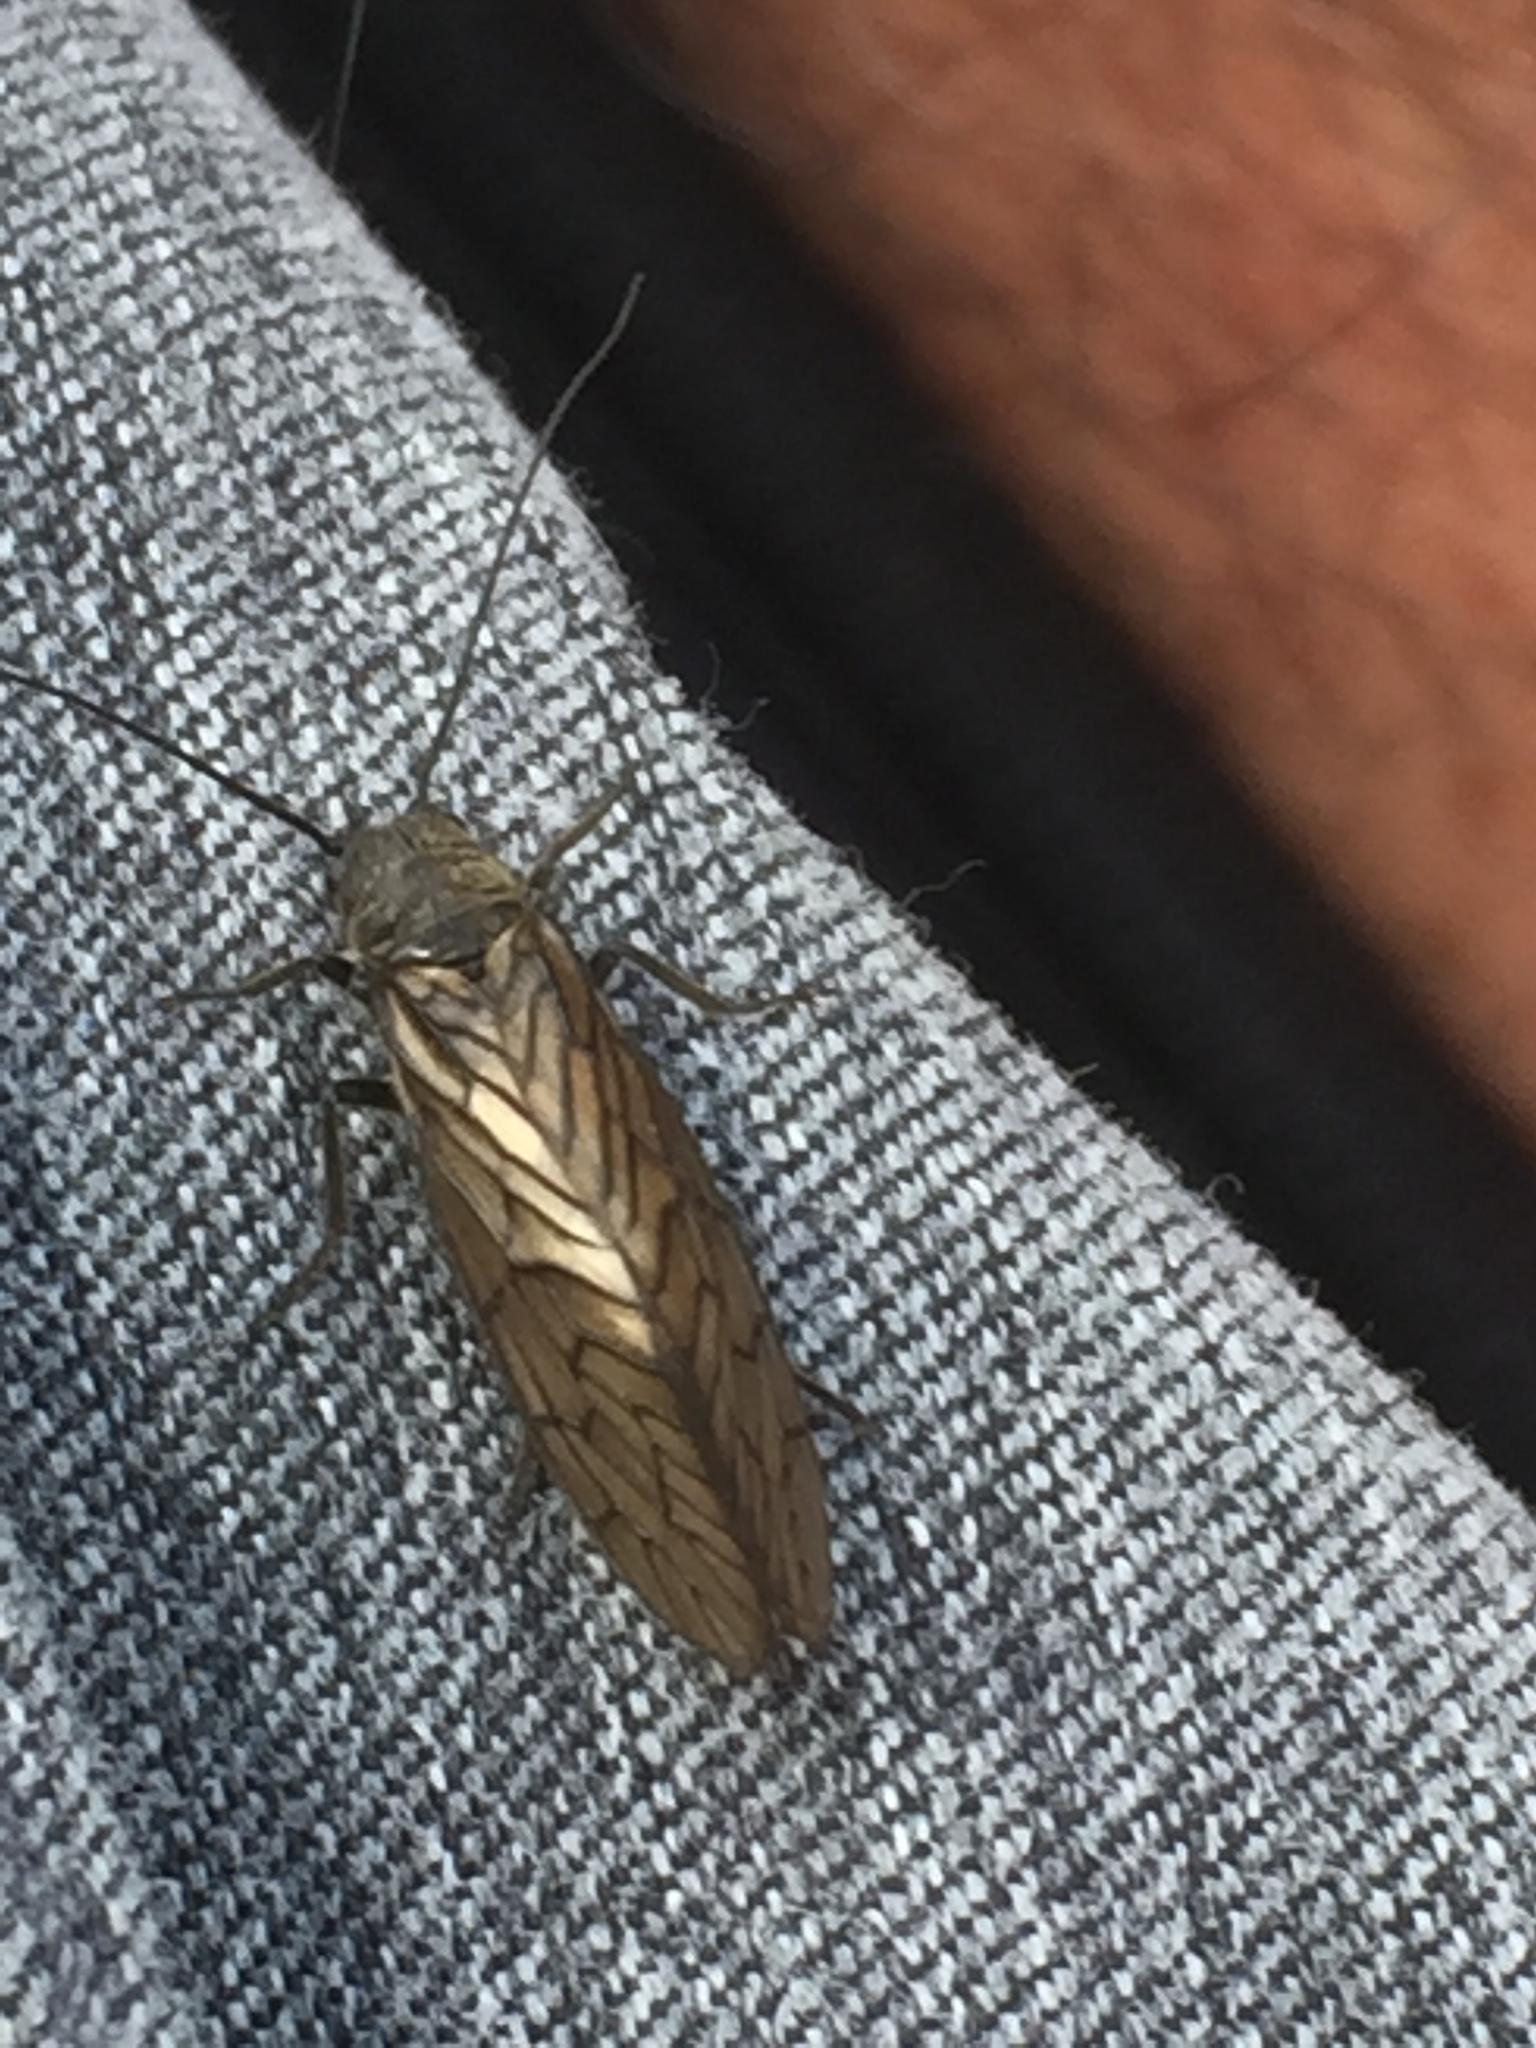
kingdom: Animalia
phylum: Arthropoda
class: Insecta
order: Megaloptera
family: Sialidae
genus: Sialis
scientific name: Sialis
